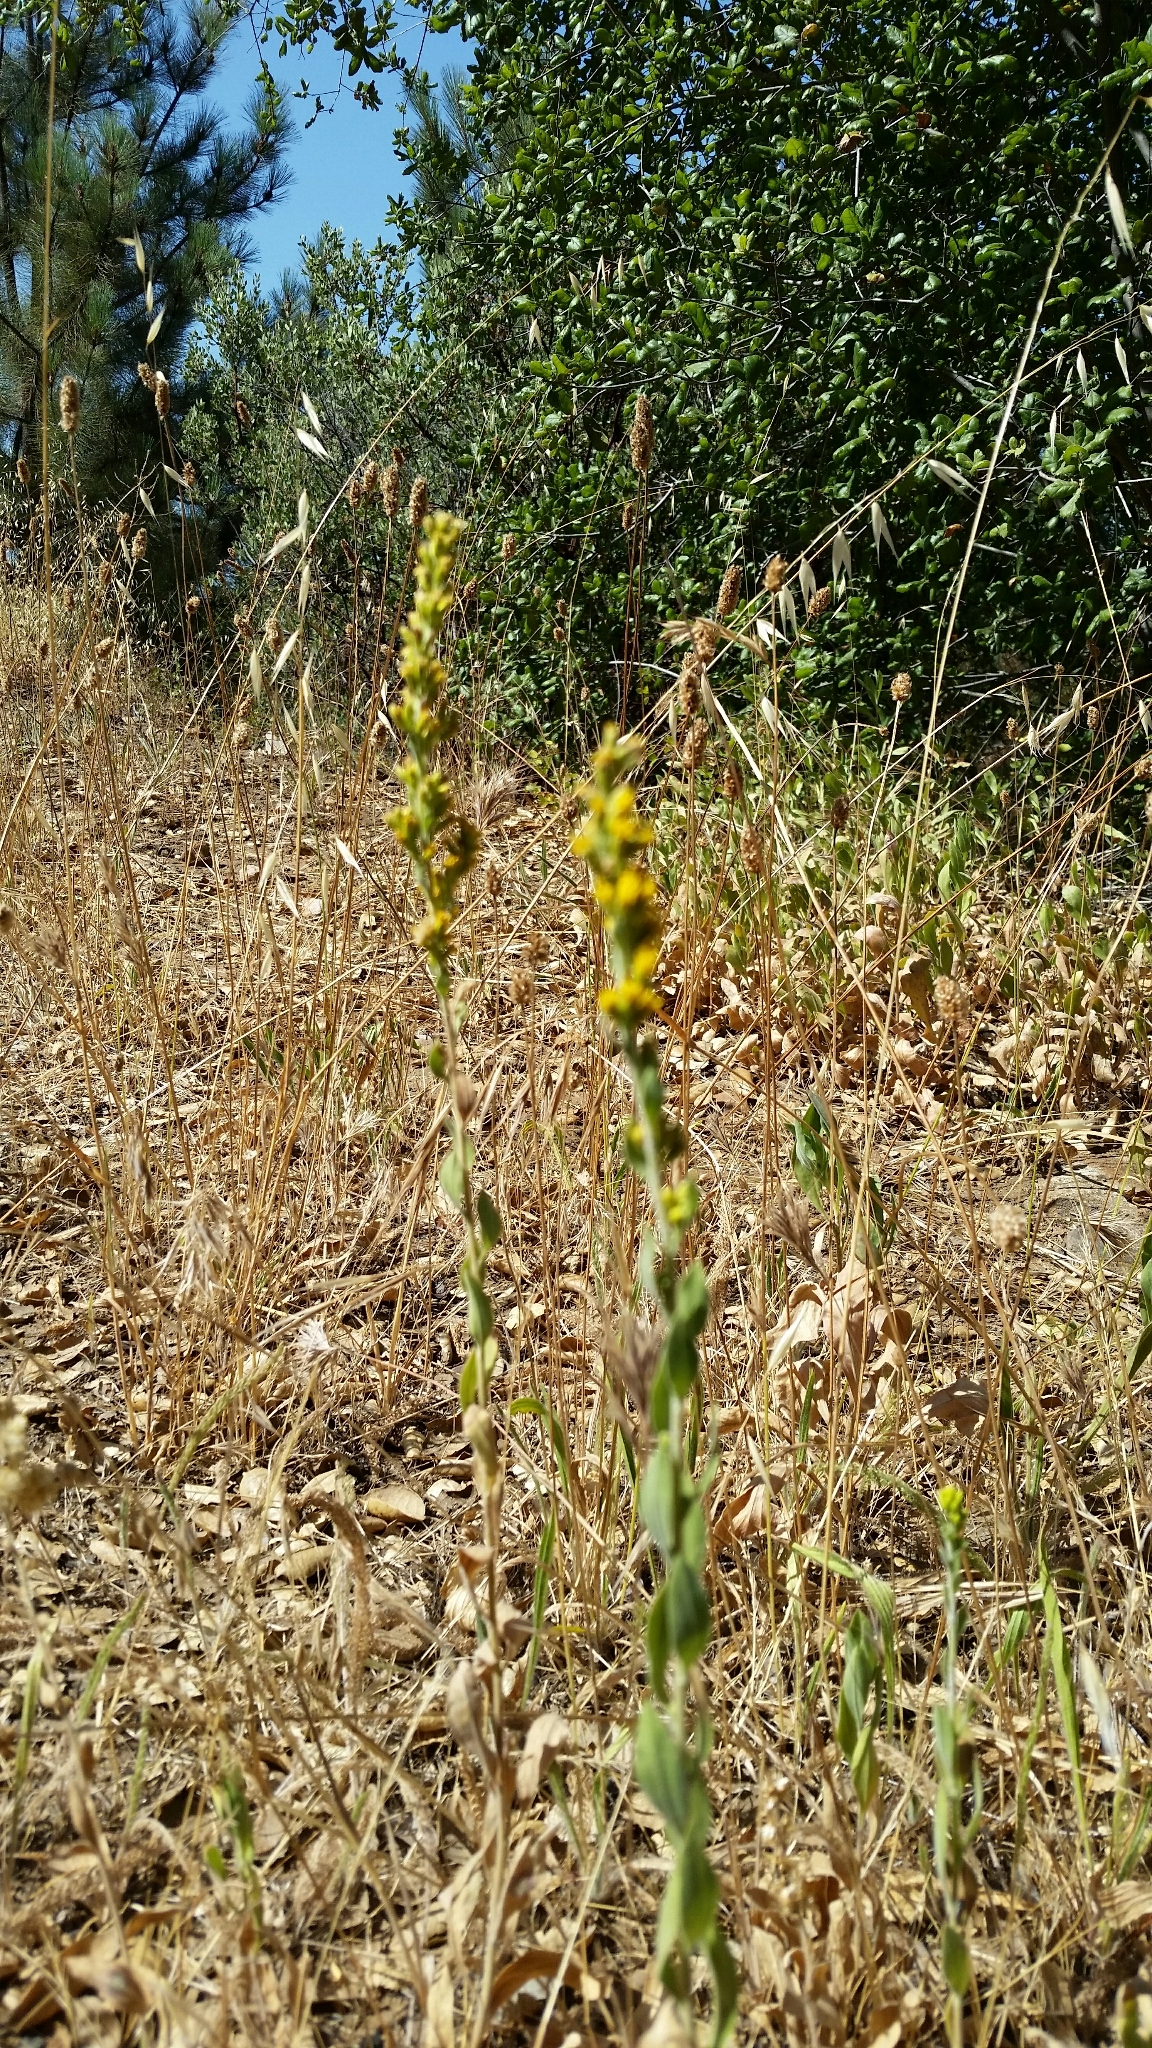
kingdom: Plantae
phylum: Tracheophyta
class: Magnoliopsida
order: Asterales
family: Asteraceae
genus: Solidago
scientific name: Solidago californica
